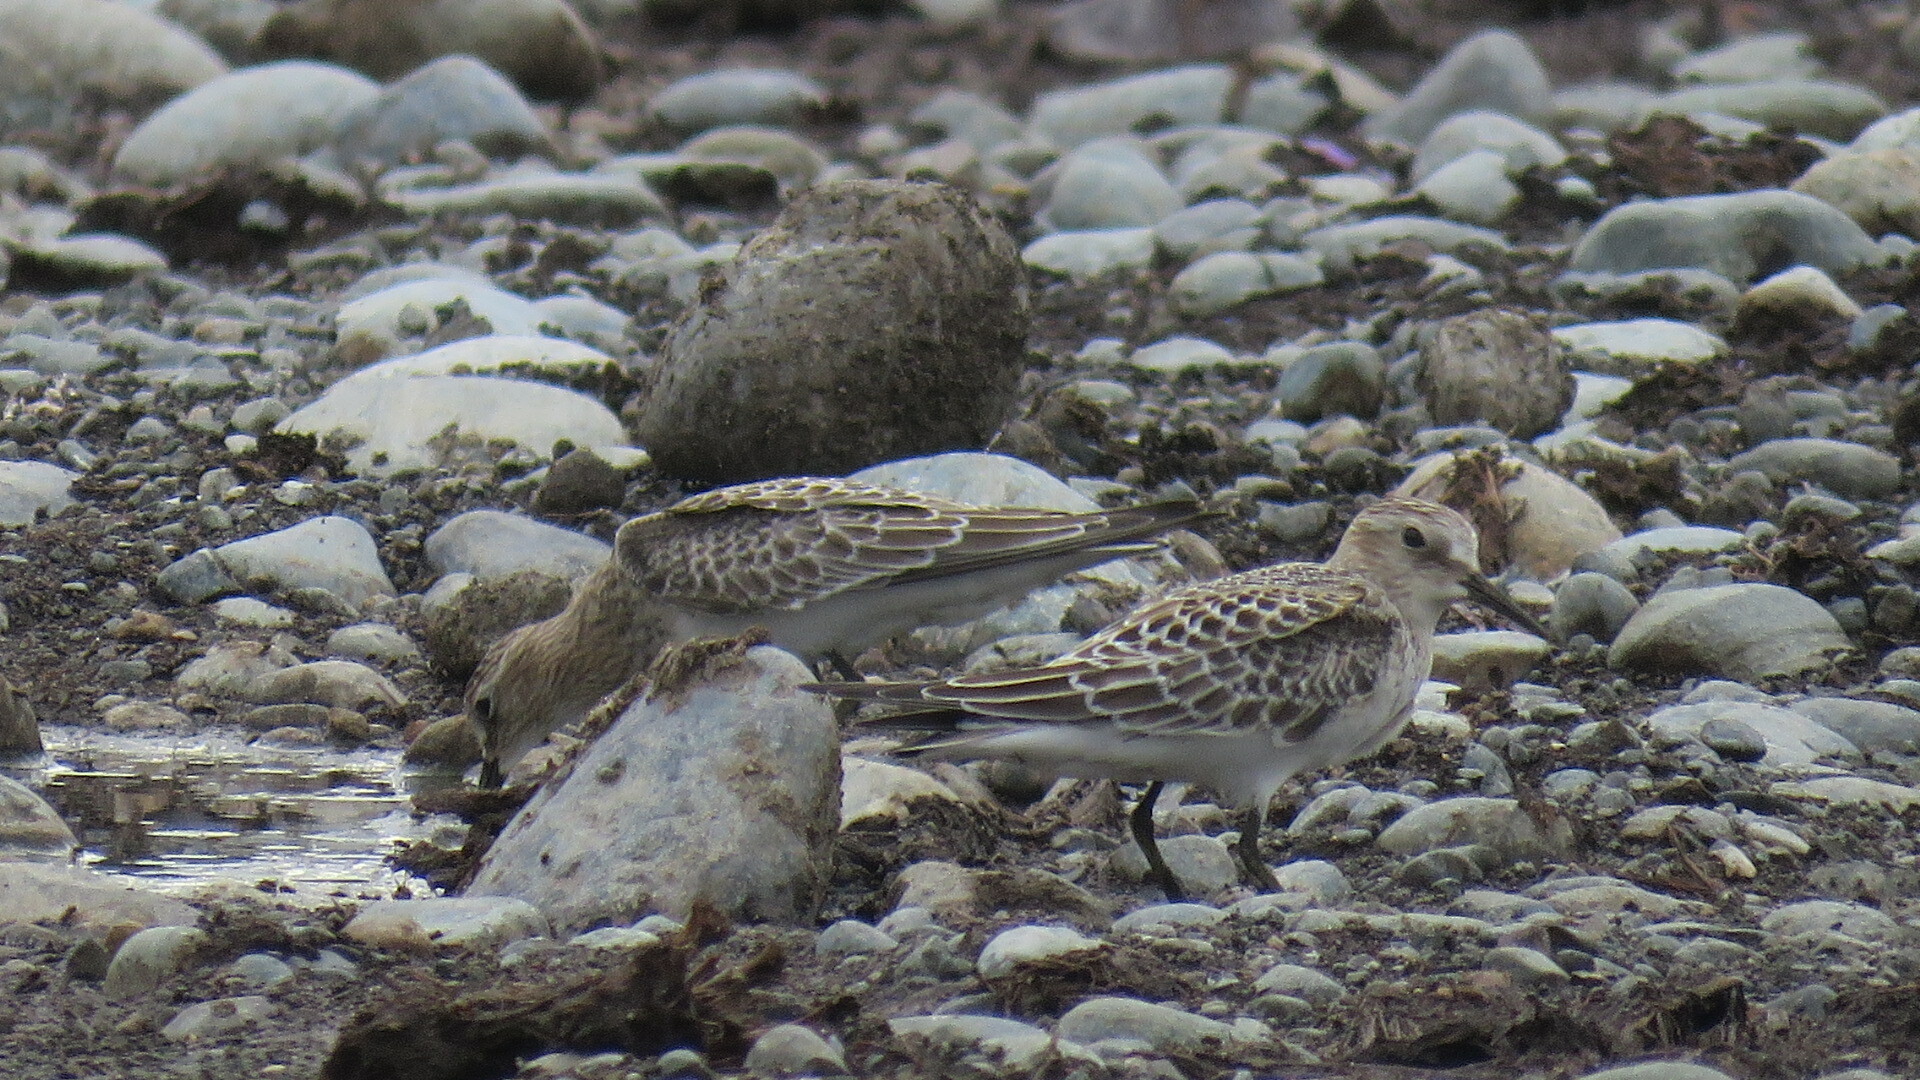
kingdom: Animalia
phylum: Chordata
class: Aves
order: Charadriiformes
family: Scolopacidae
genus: Calidris
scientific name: Calidris bairdii
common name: Baird's sandpiper
